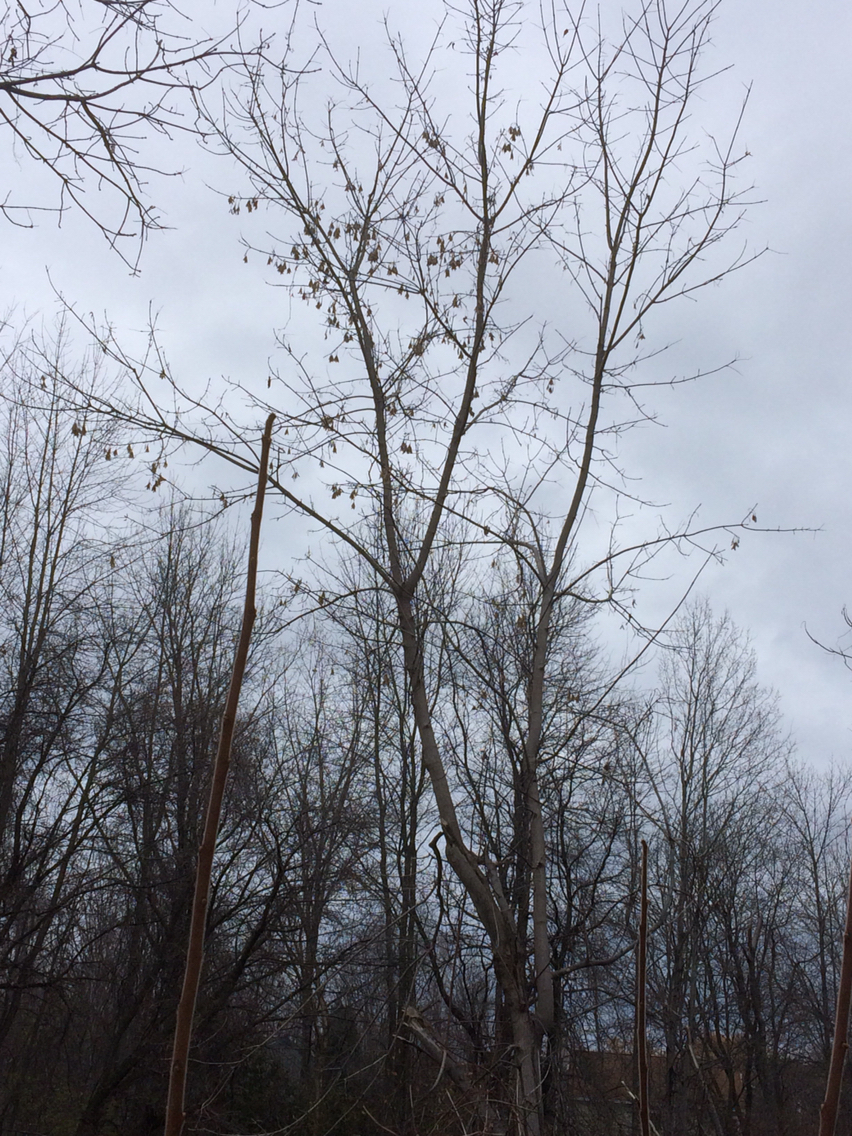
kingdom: Plantae
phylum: Tracheophyta
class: Magnoliopsida
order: Sapindales
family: Sapindaceae
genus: Acer
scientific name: Acer negundo
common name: Ashleaf maple
